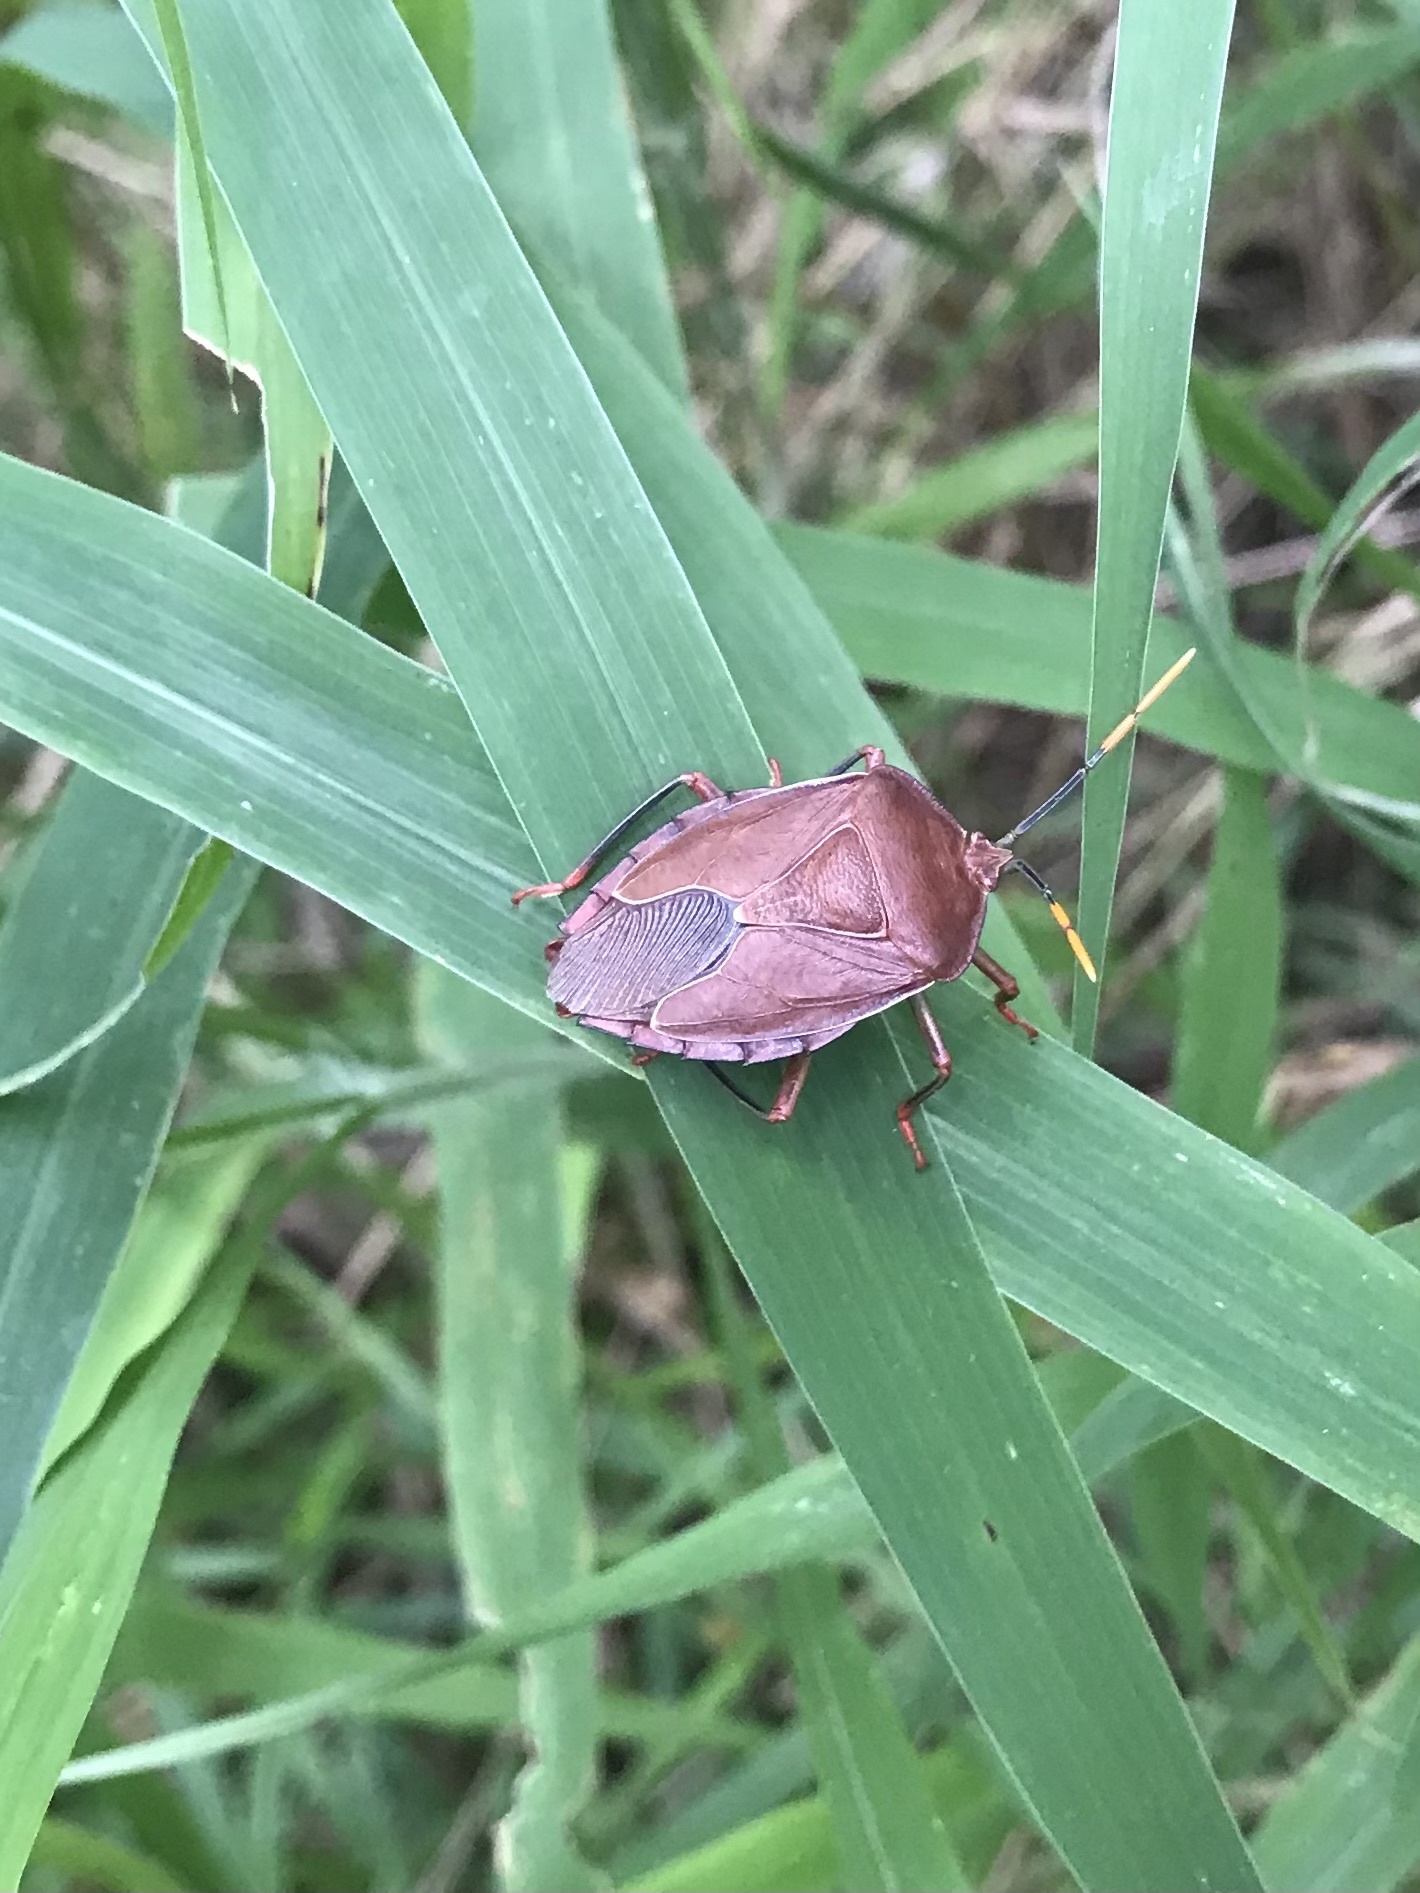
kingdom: Animalia
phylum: Arthropoda
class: Insecta
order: Hemiptera
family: Tessaratomidae
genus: Stilida
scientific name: Stilida indecora
